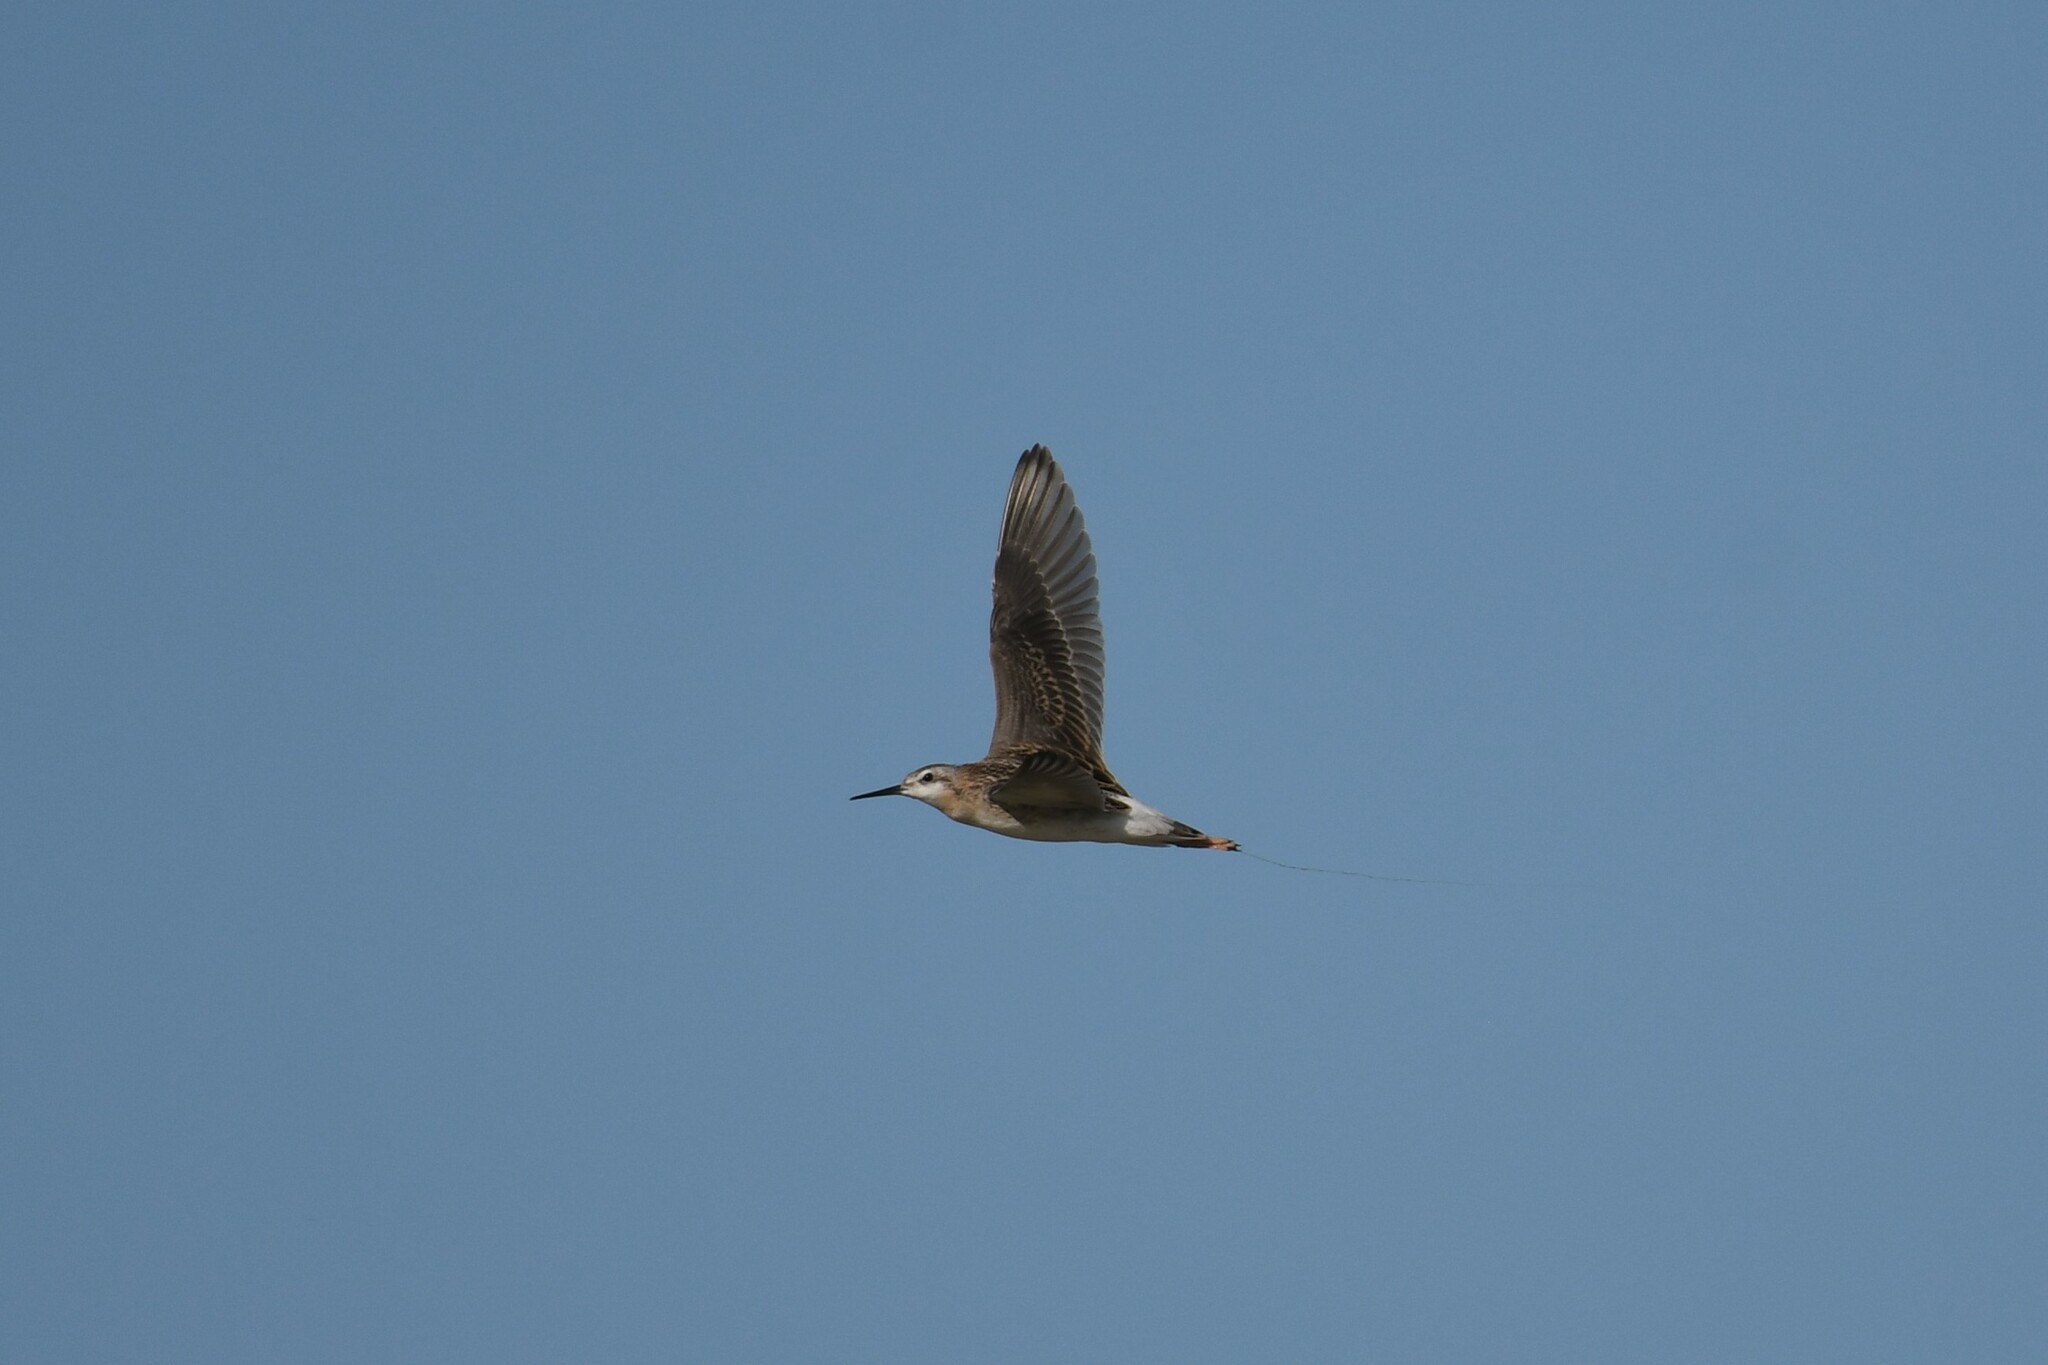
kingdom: Animalia
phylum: Chordata
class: Aves
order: Charadriiformes
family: Scolopacidae
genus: Phalaropus
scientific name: Phalaropus tricolor
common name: Wilson's phalarope
